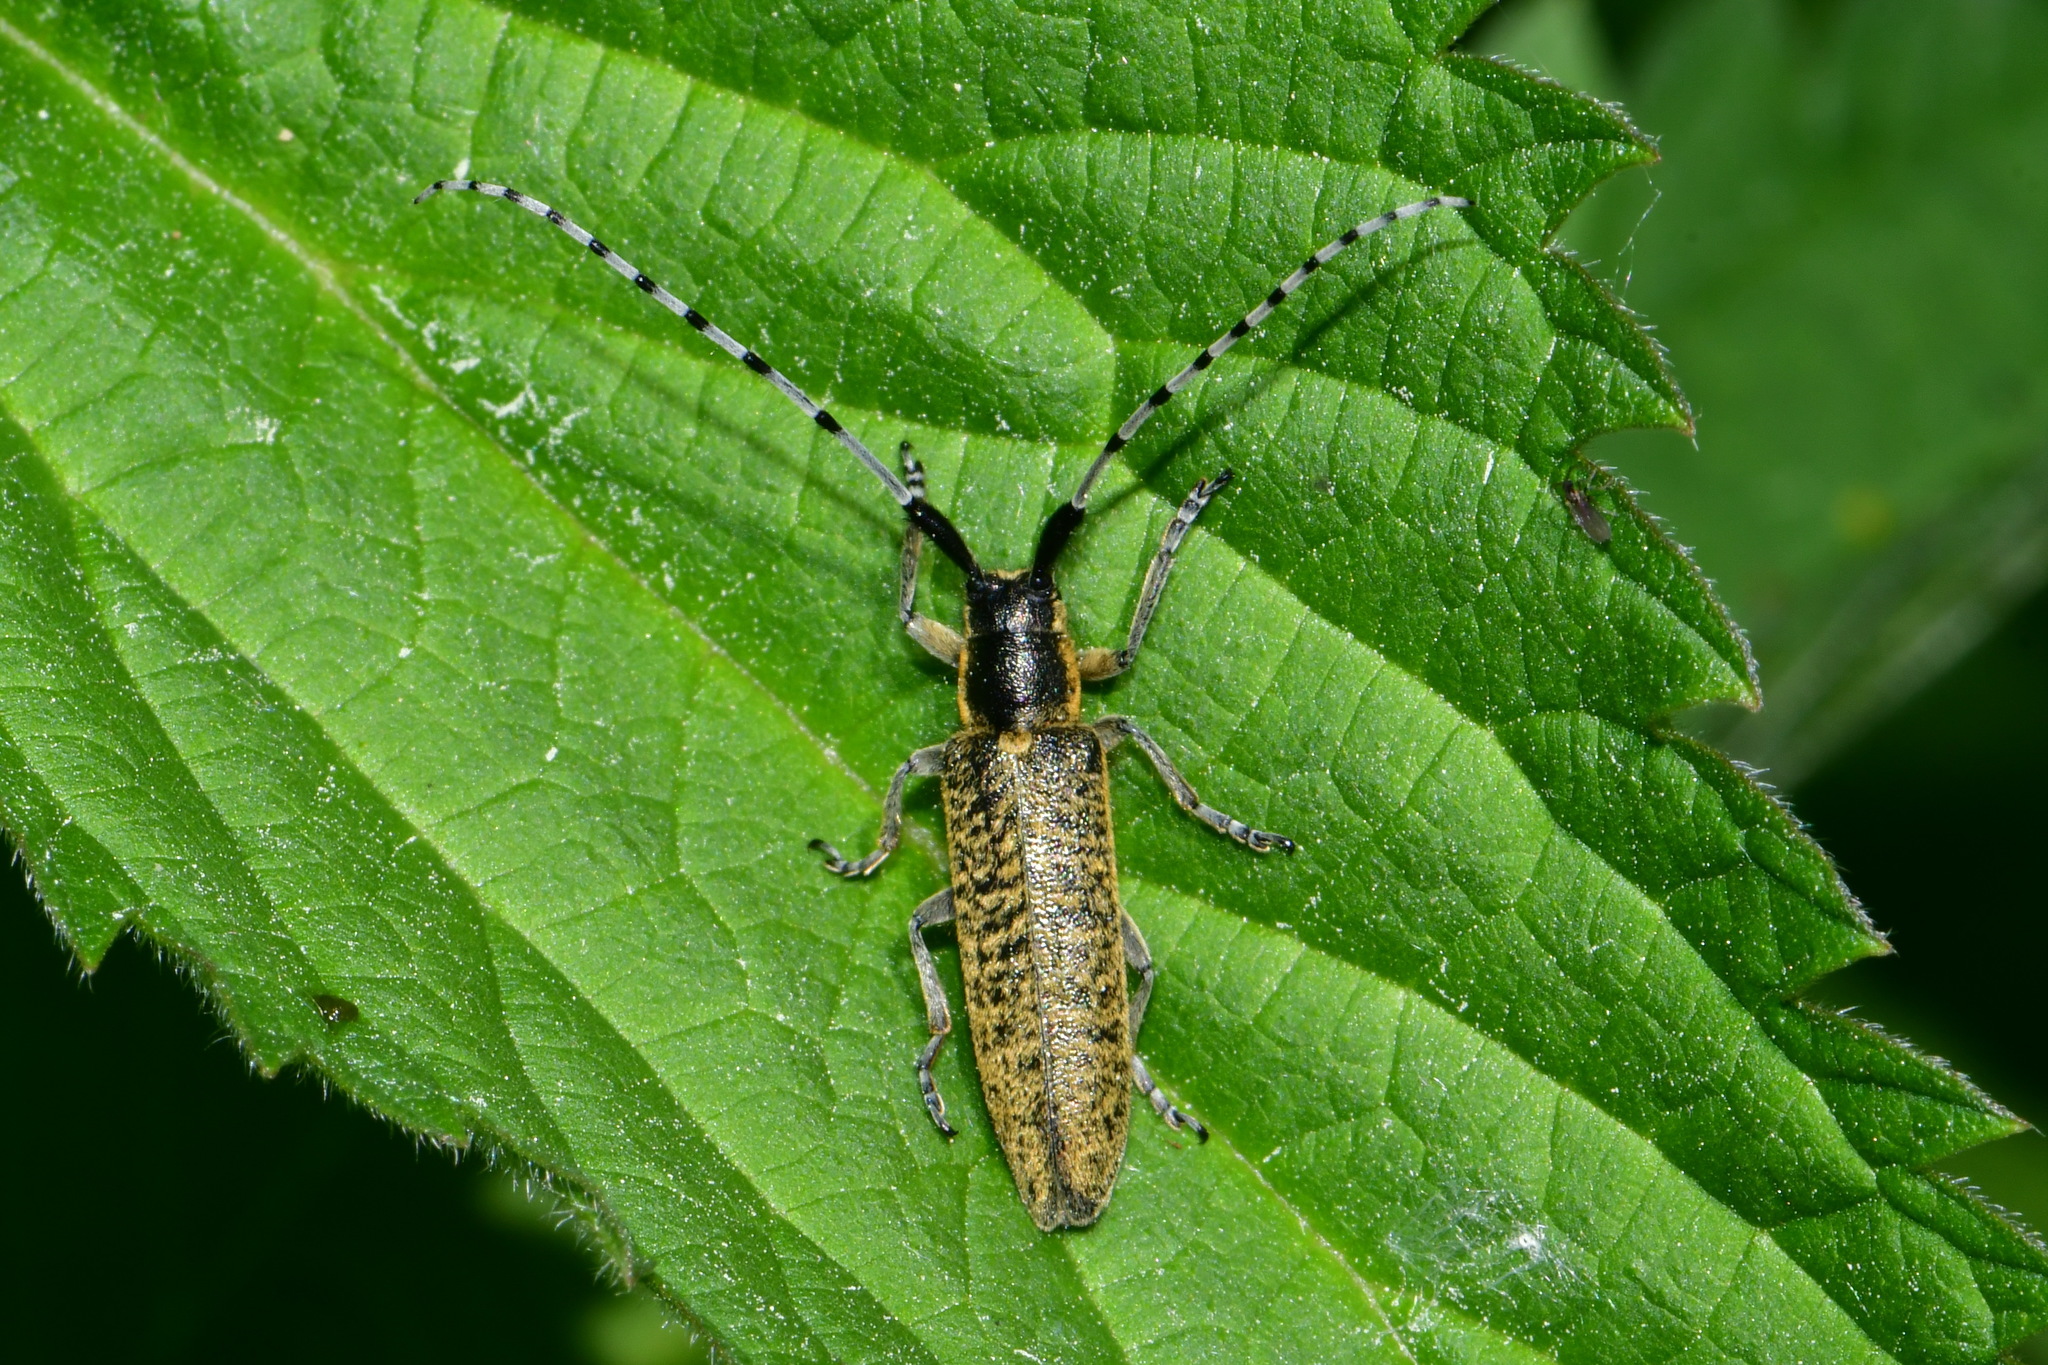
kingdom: Animalia
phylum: Arthropoda
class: Insecta
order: Coleoptera
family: Cerambycidae
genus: Agapanthia
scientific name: Agapanthia villosoviridescens
